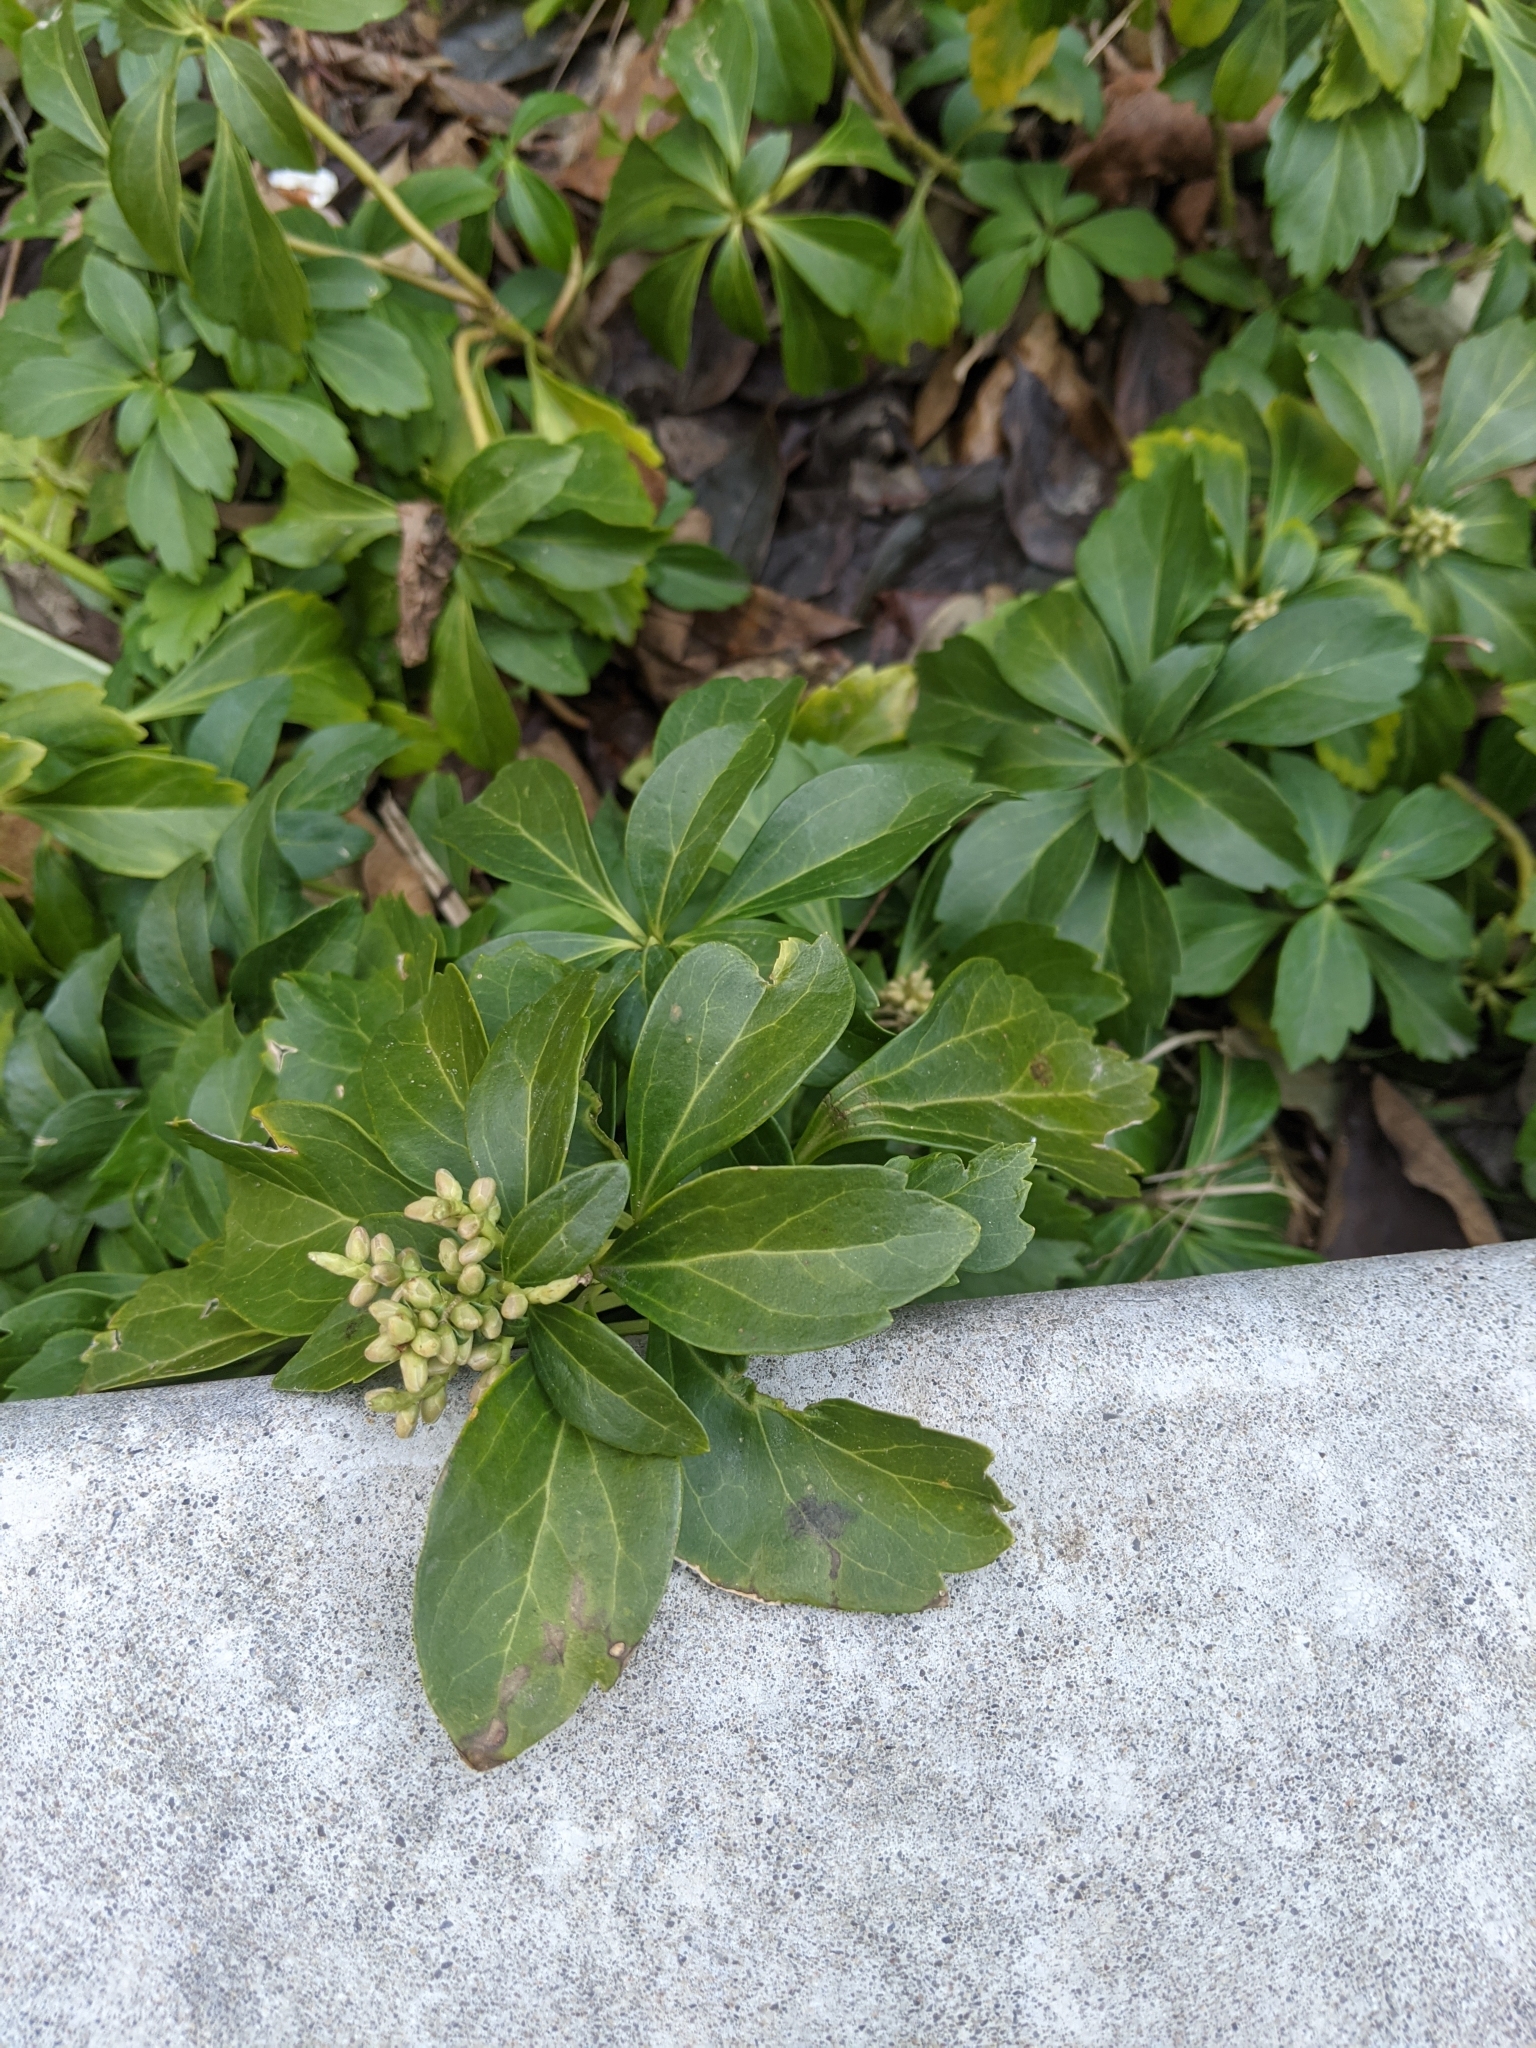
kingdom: Plantae
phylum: Tracheophyta
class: Magnoliopsida
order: Buxales
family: Buxaceae
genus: Pachysandra
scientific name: Pachysandra terminalis
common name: Japanese pachysandra
